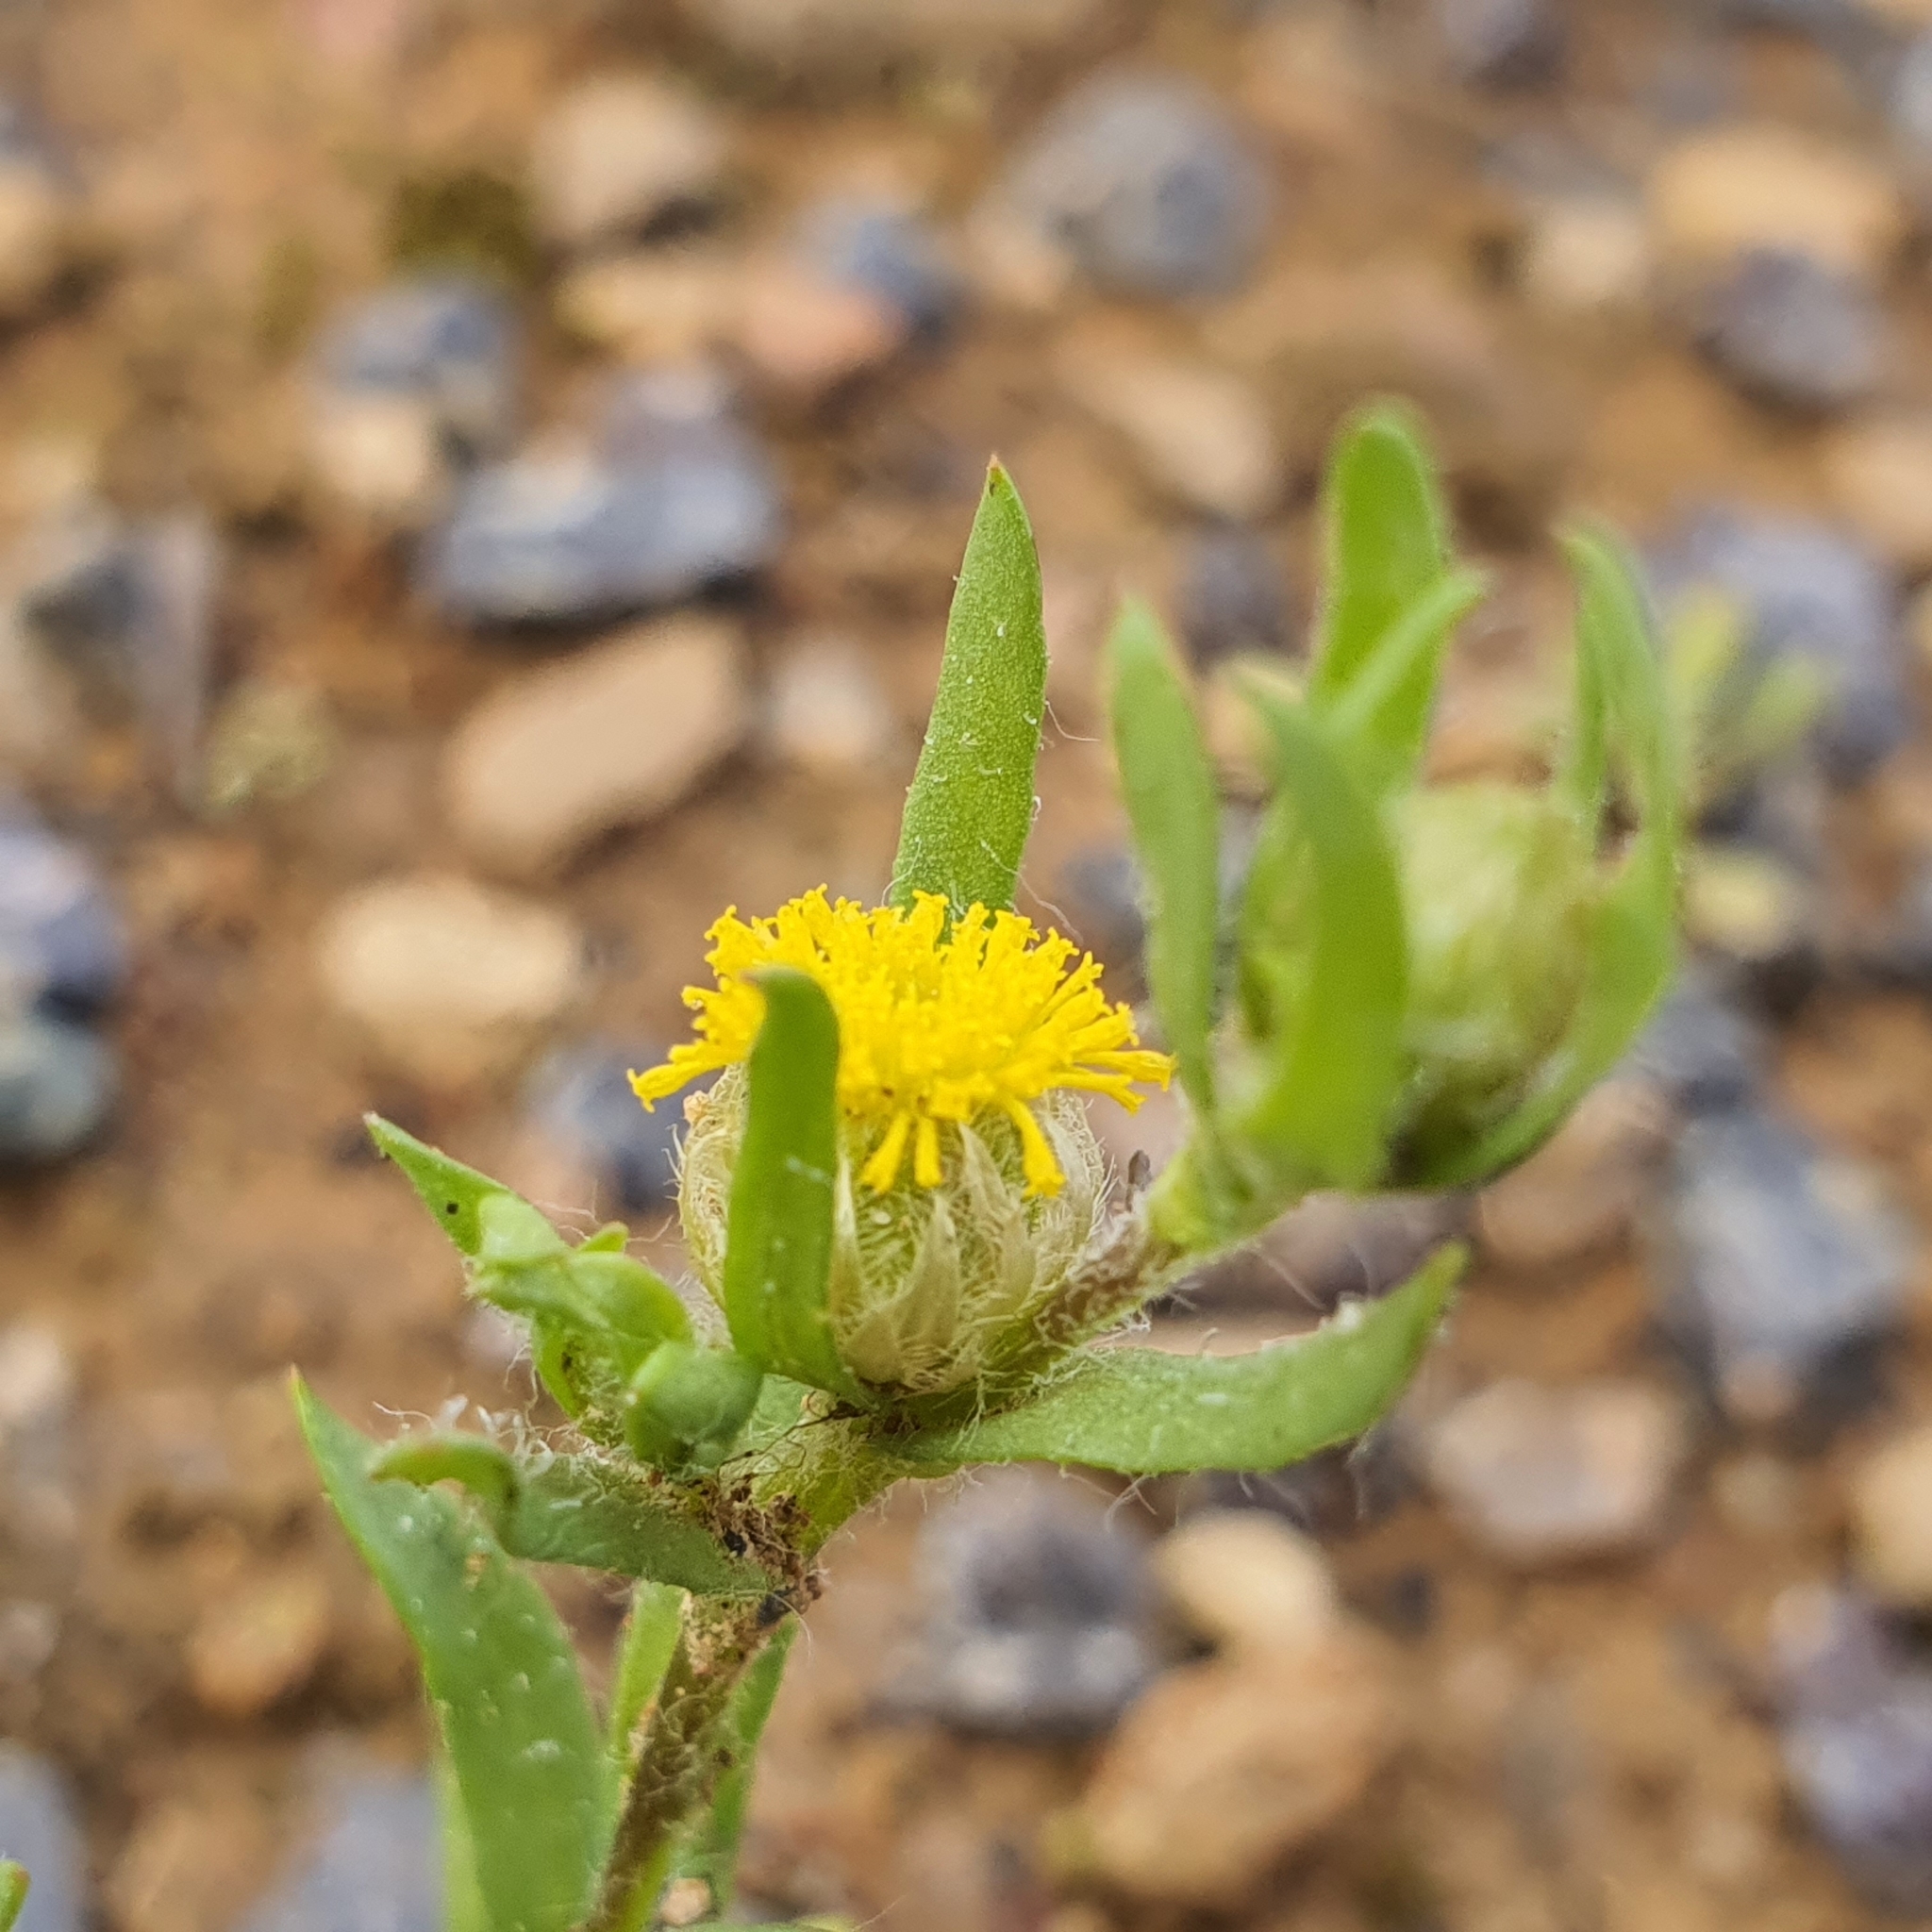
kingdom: Plantae
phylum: Tracheophyta
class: Magnoliopsida
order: Asterales
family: Asteraceae
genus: Triptilodiscus
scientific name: Triptilodiscus pygmaeus
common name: Common sunray
